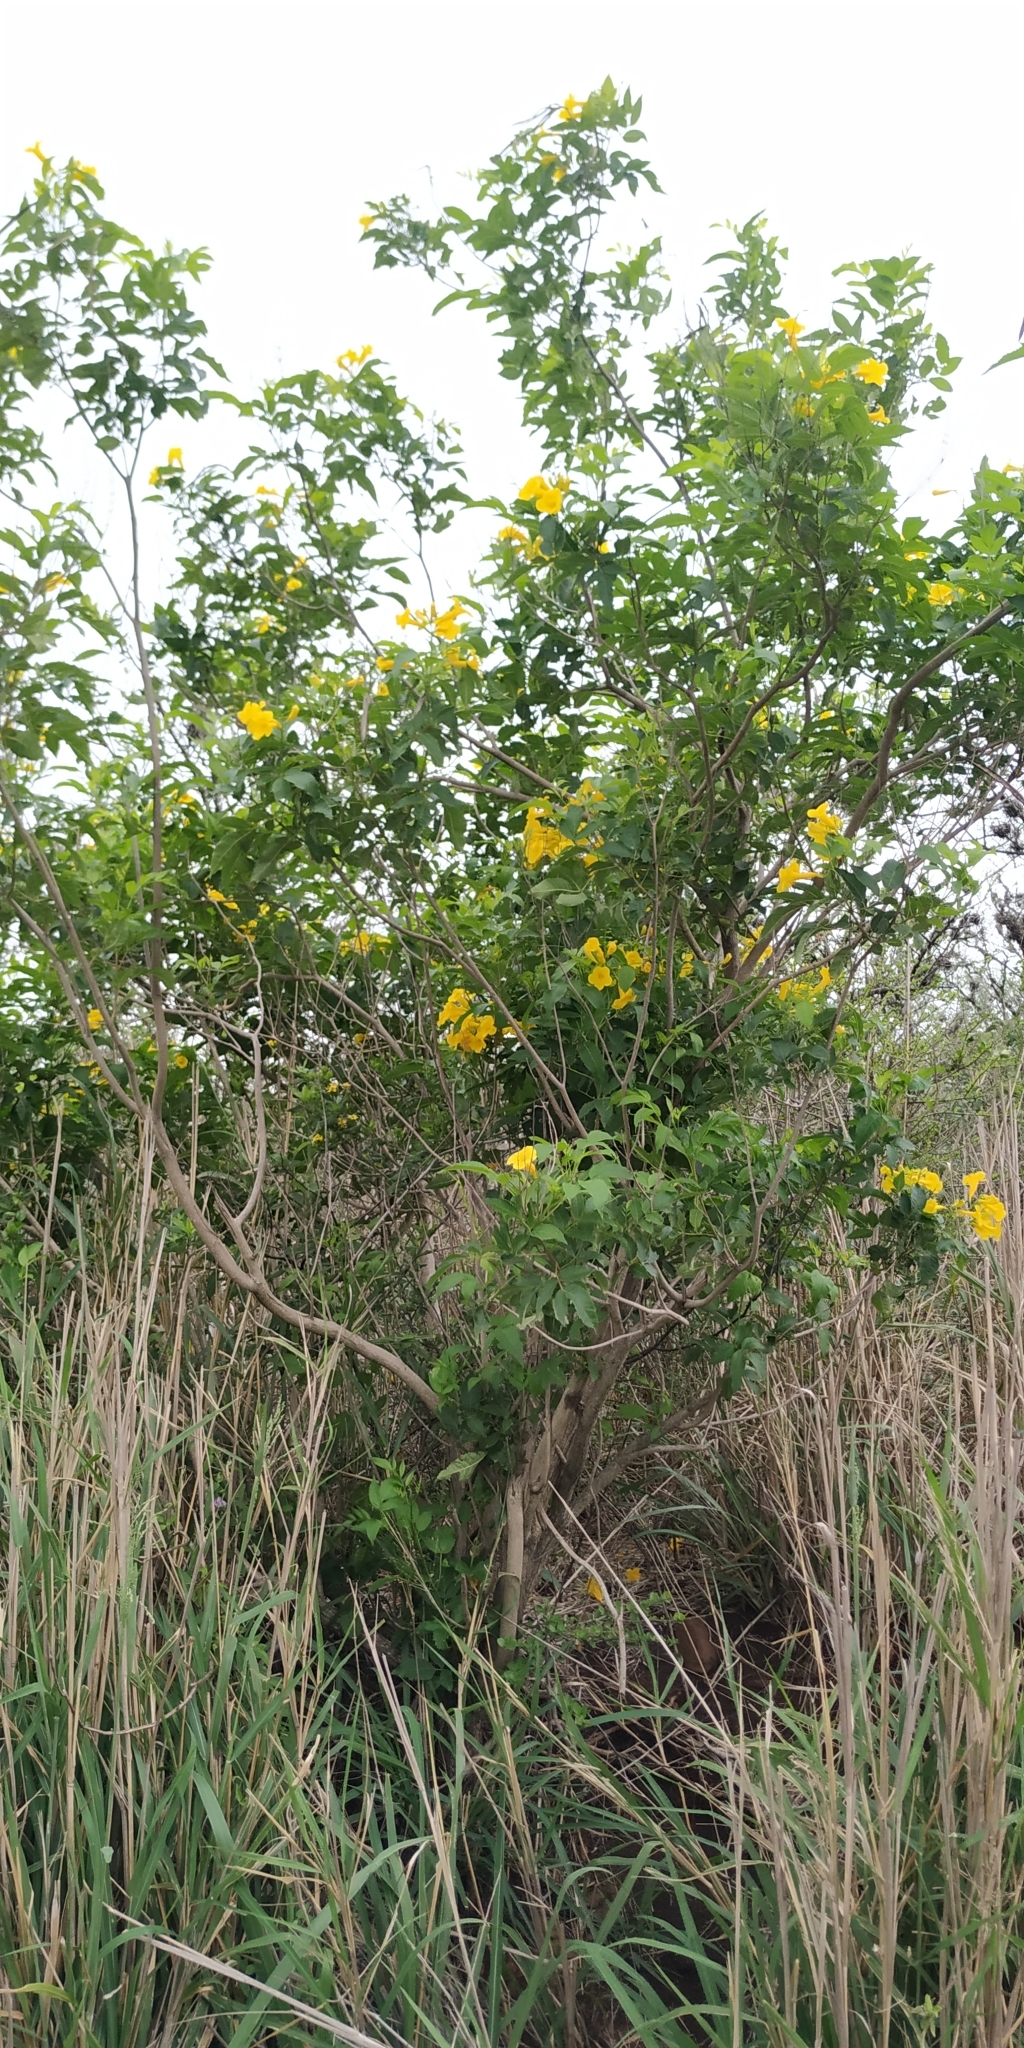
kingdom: Plantae
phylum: Tracheophyta
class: Magnoliopsida
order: Lamiales
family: Bignoniaceae
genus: Tecoma
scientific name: Tecoma stans
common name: Yellow trumpetbush
